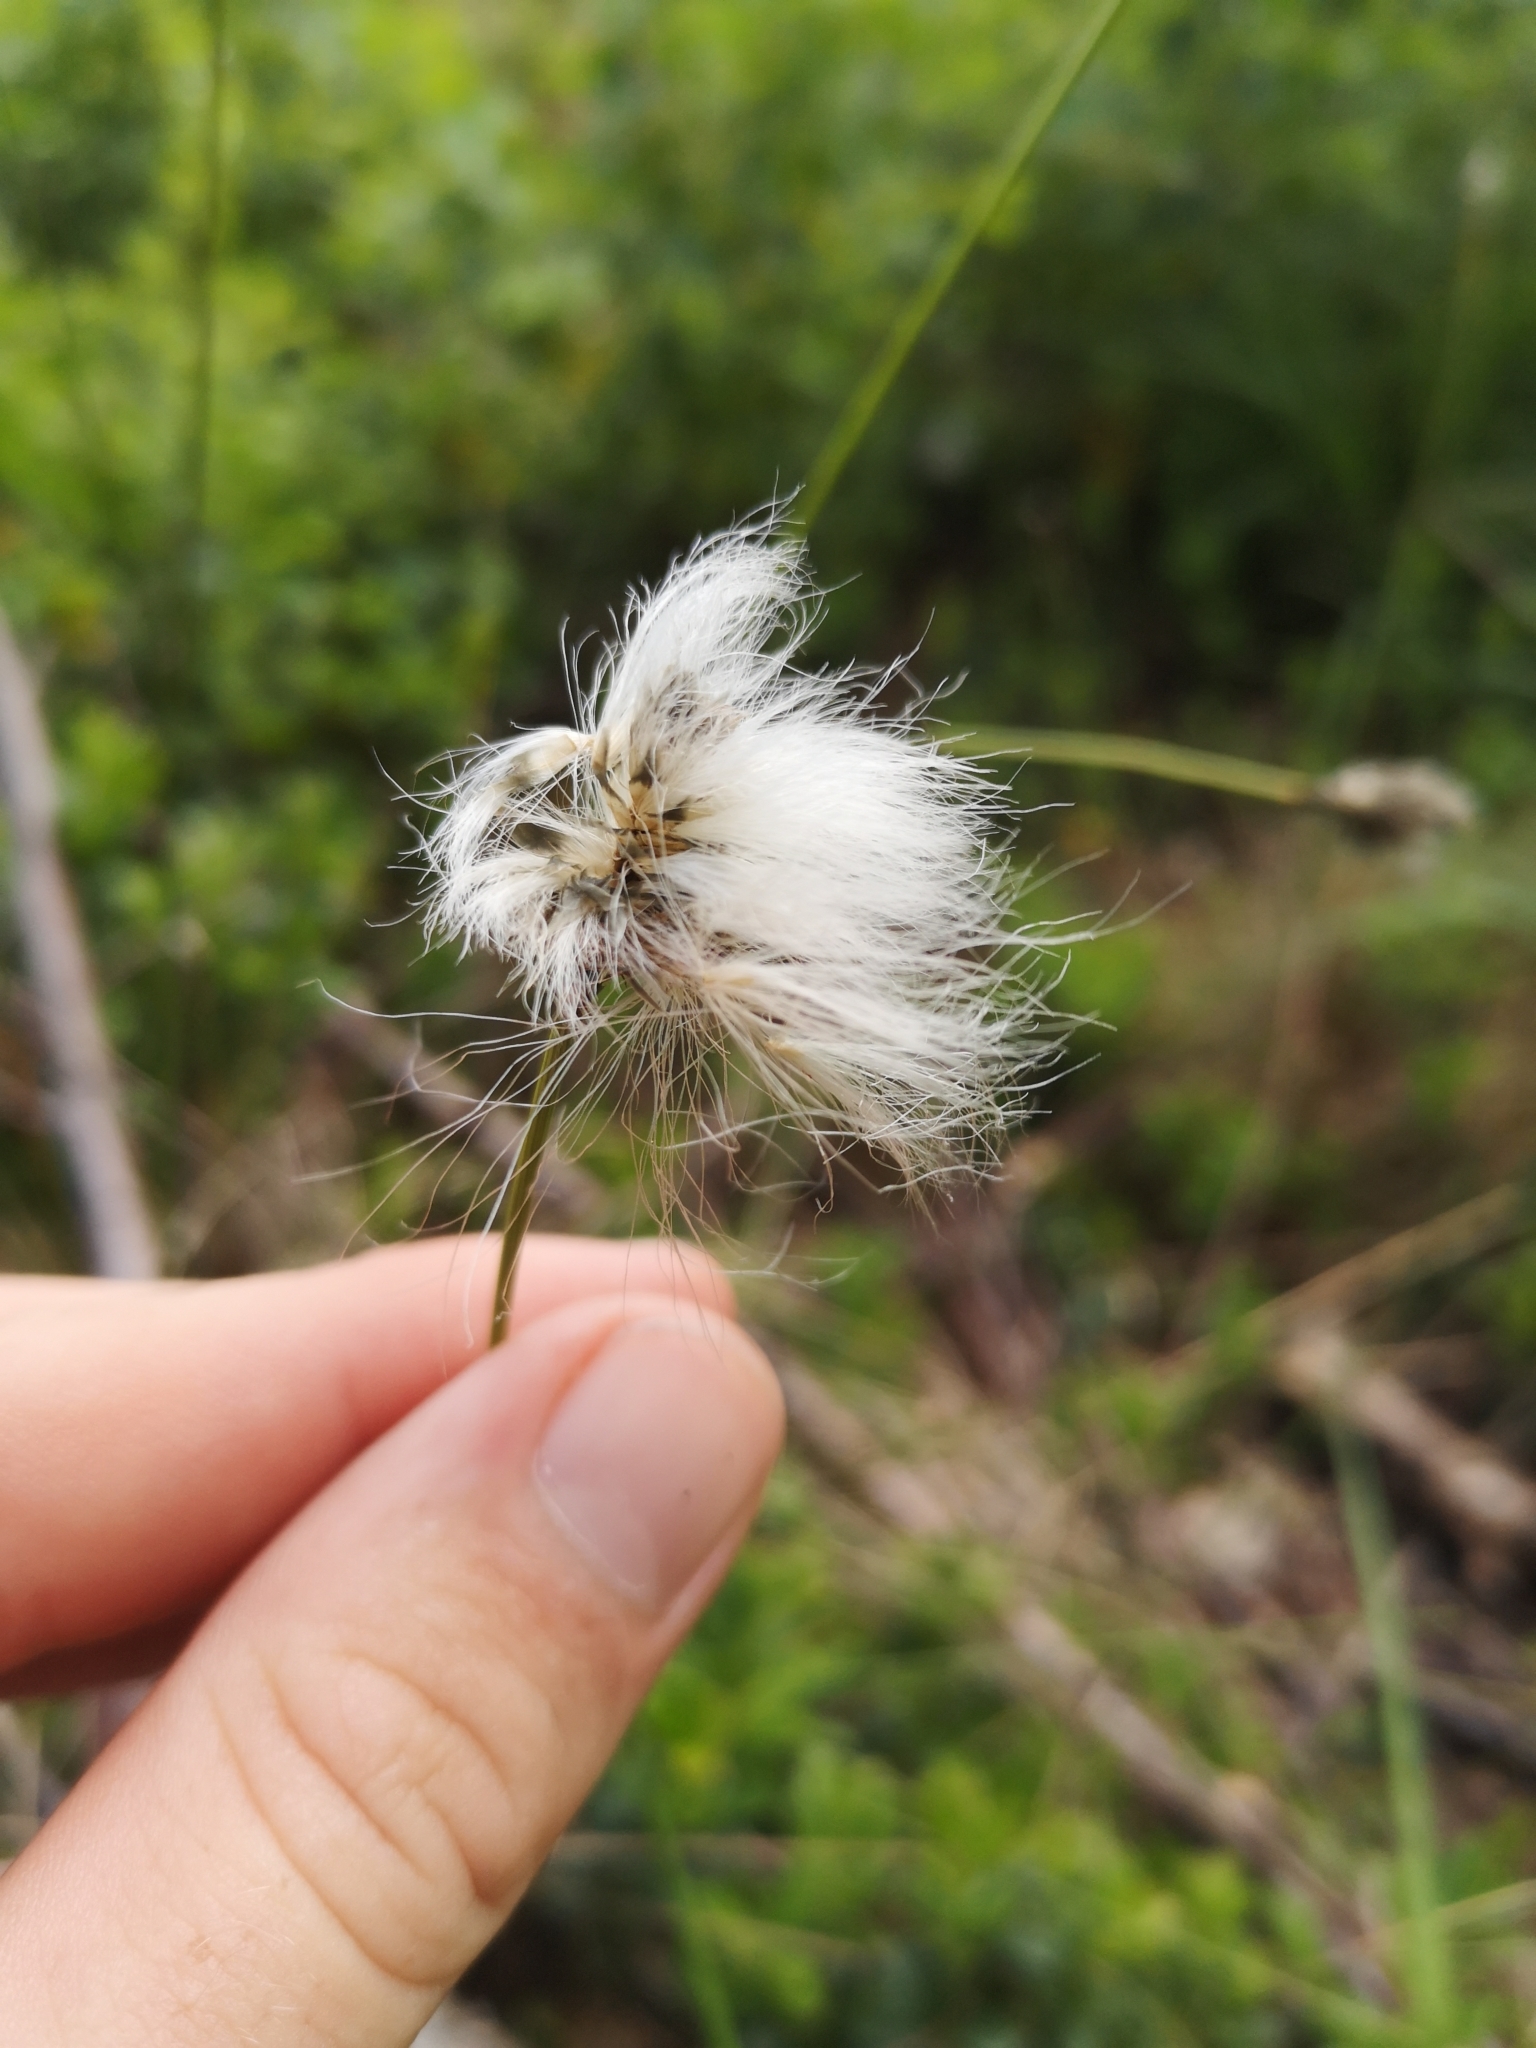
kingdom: Plantae
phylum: Tracheophyta
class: Liliopsida
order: Poales
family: Cyperaceae
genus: Eriophorum
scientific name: Eriophorum vaginatum
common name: Hare's-tail cottongrass
